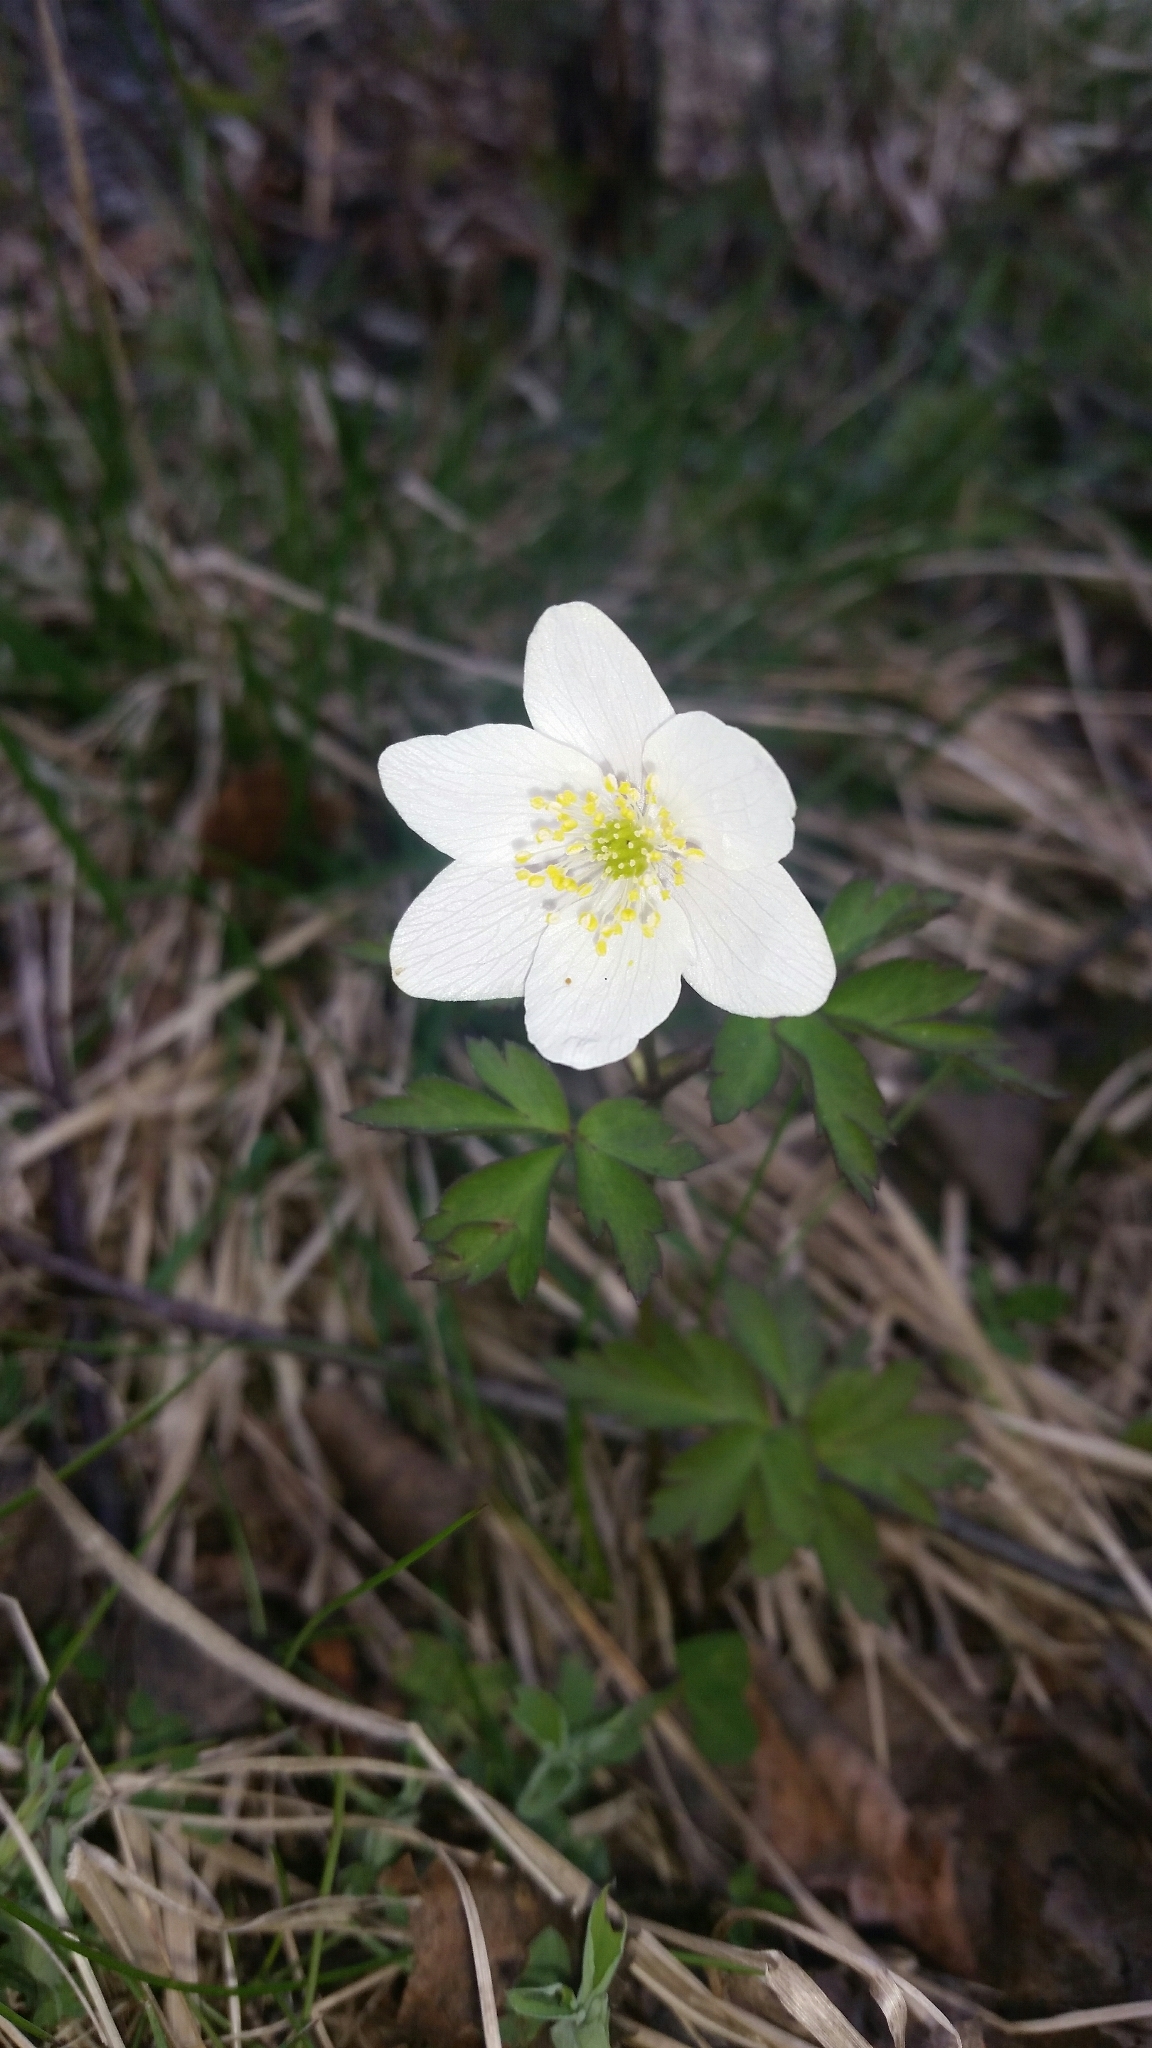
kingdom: Plantae
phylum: Tracheophyta
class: Magnoliopsida
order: Ranunculales
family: Ranunculaceae
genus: Anemone
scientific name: Anemone nemorosa
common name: Wood anemone
